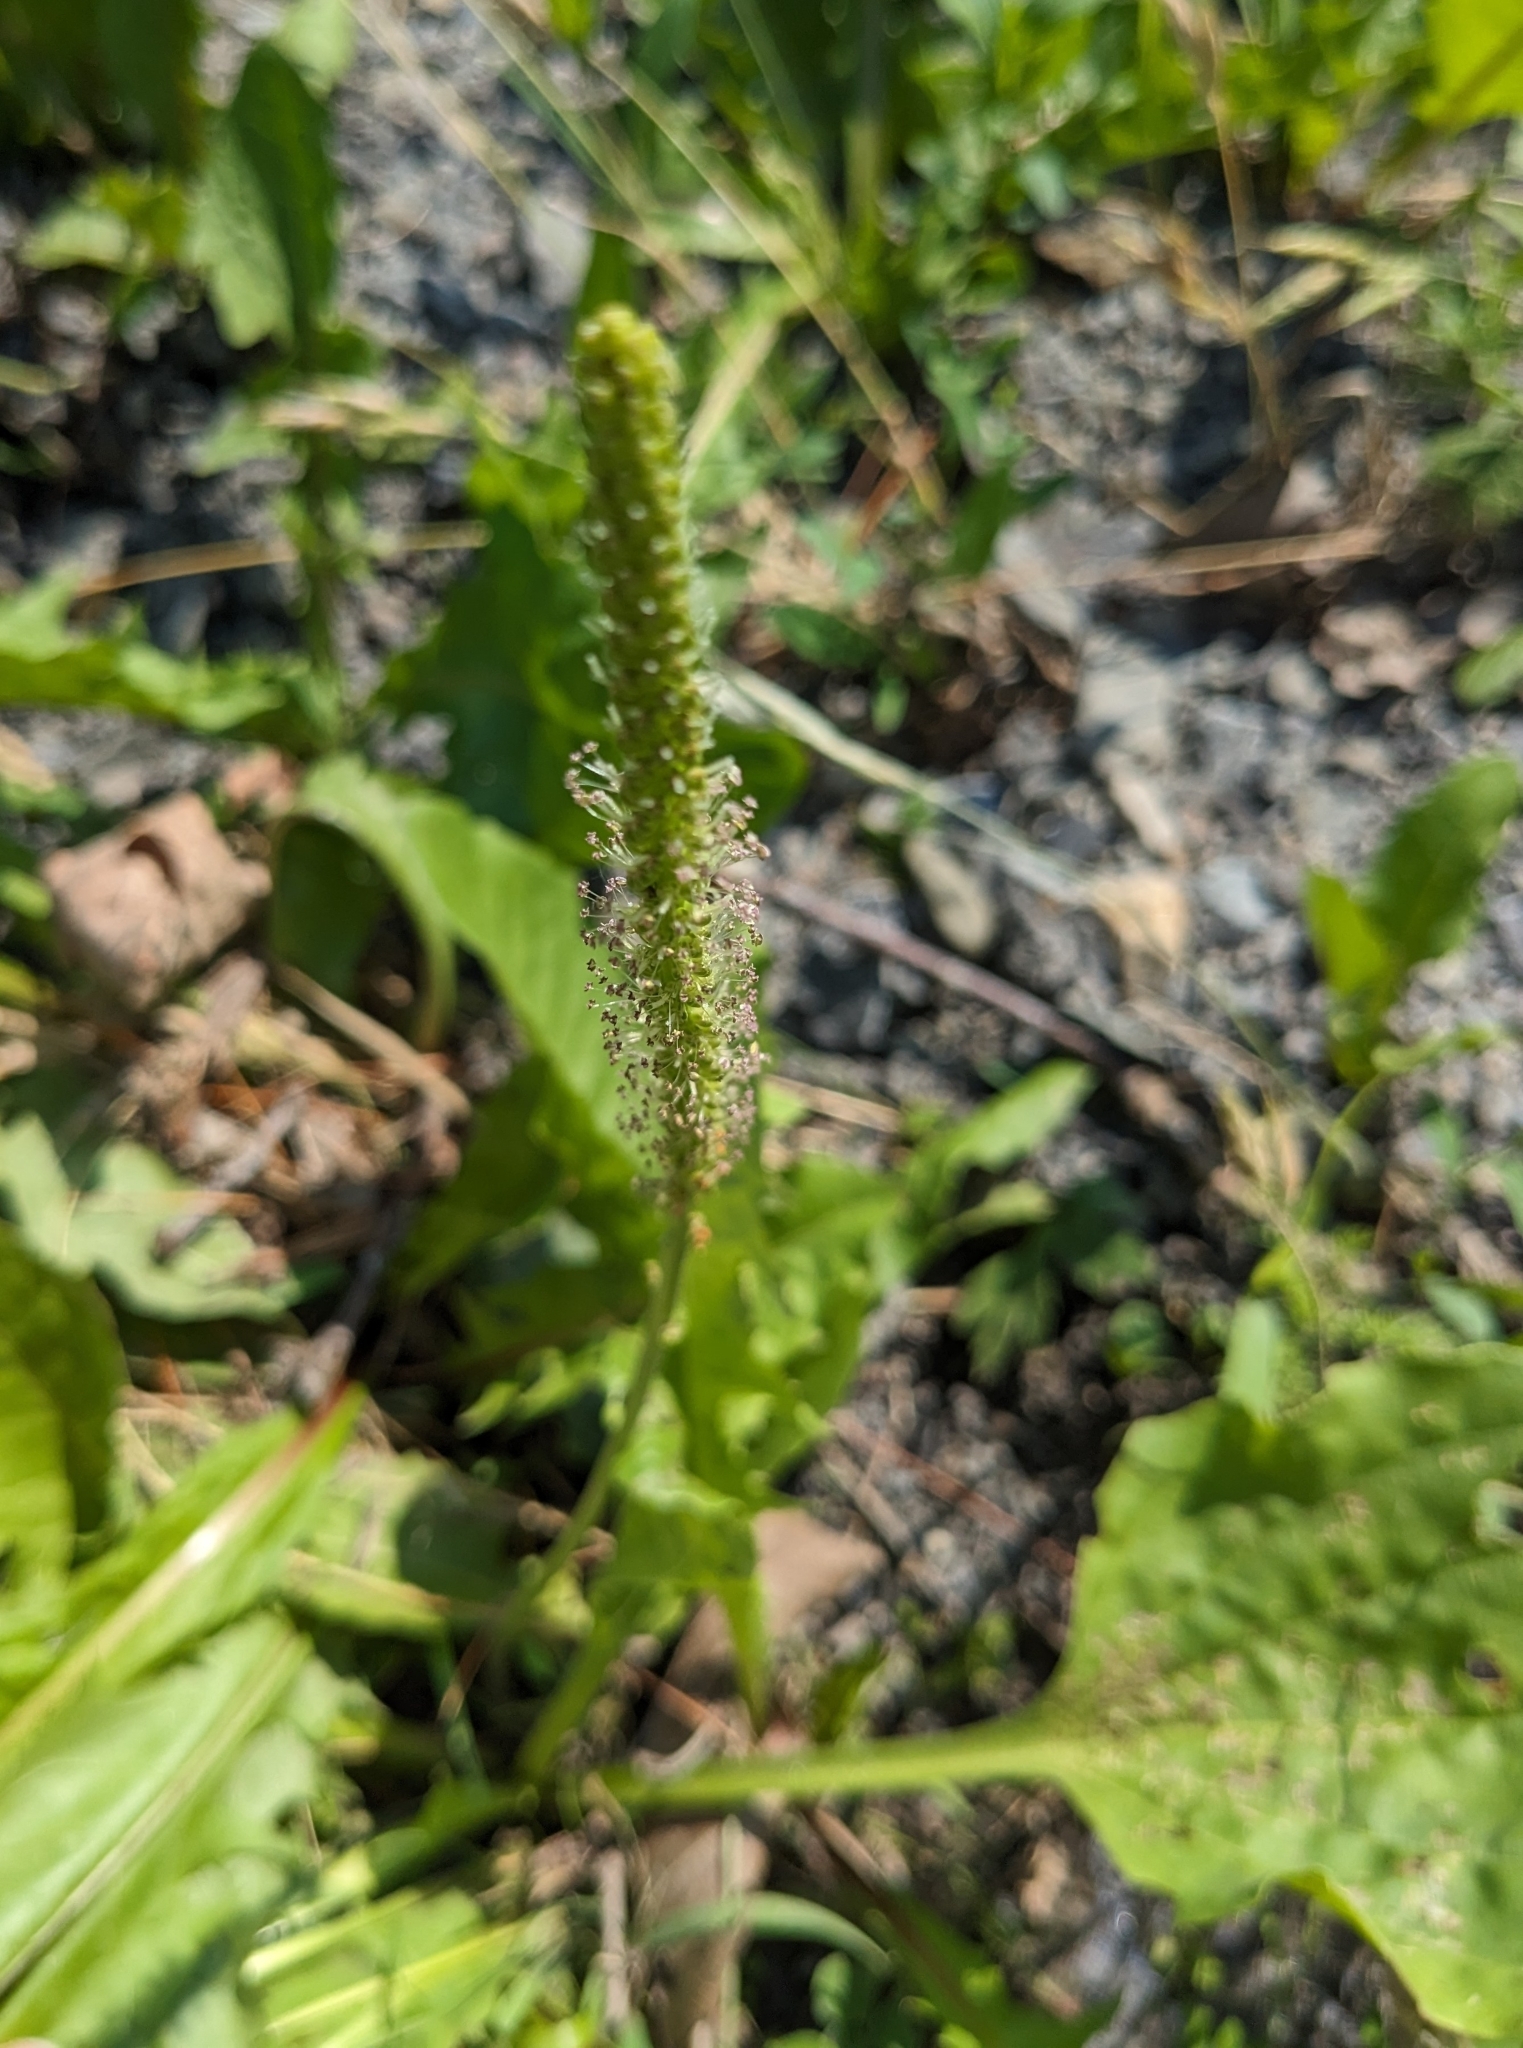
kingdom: Plantae
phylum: Tracheophyta
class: Magnoliopsida
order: Lamiales
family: Plantaginaceae
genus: Plantago
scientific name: Plantago major
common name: Common plantain
